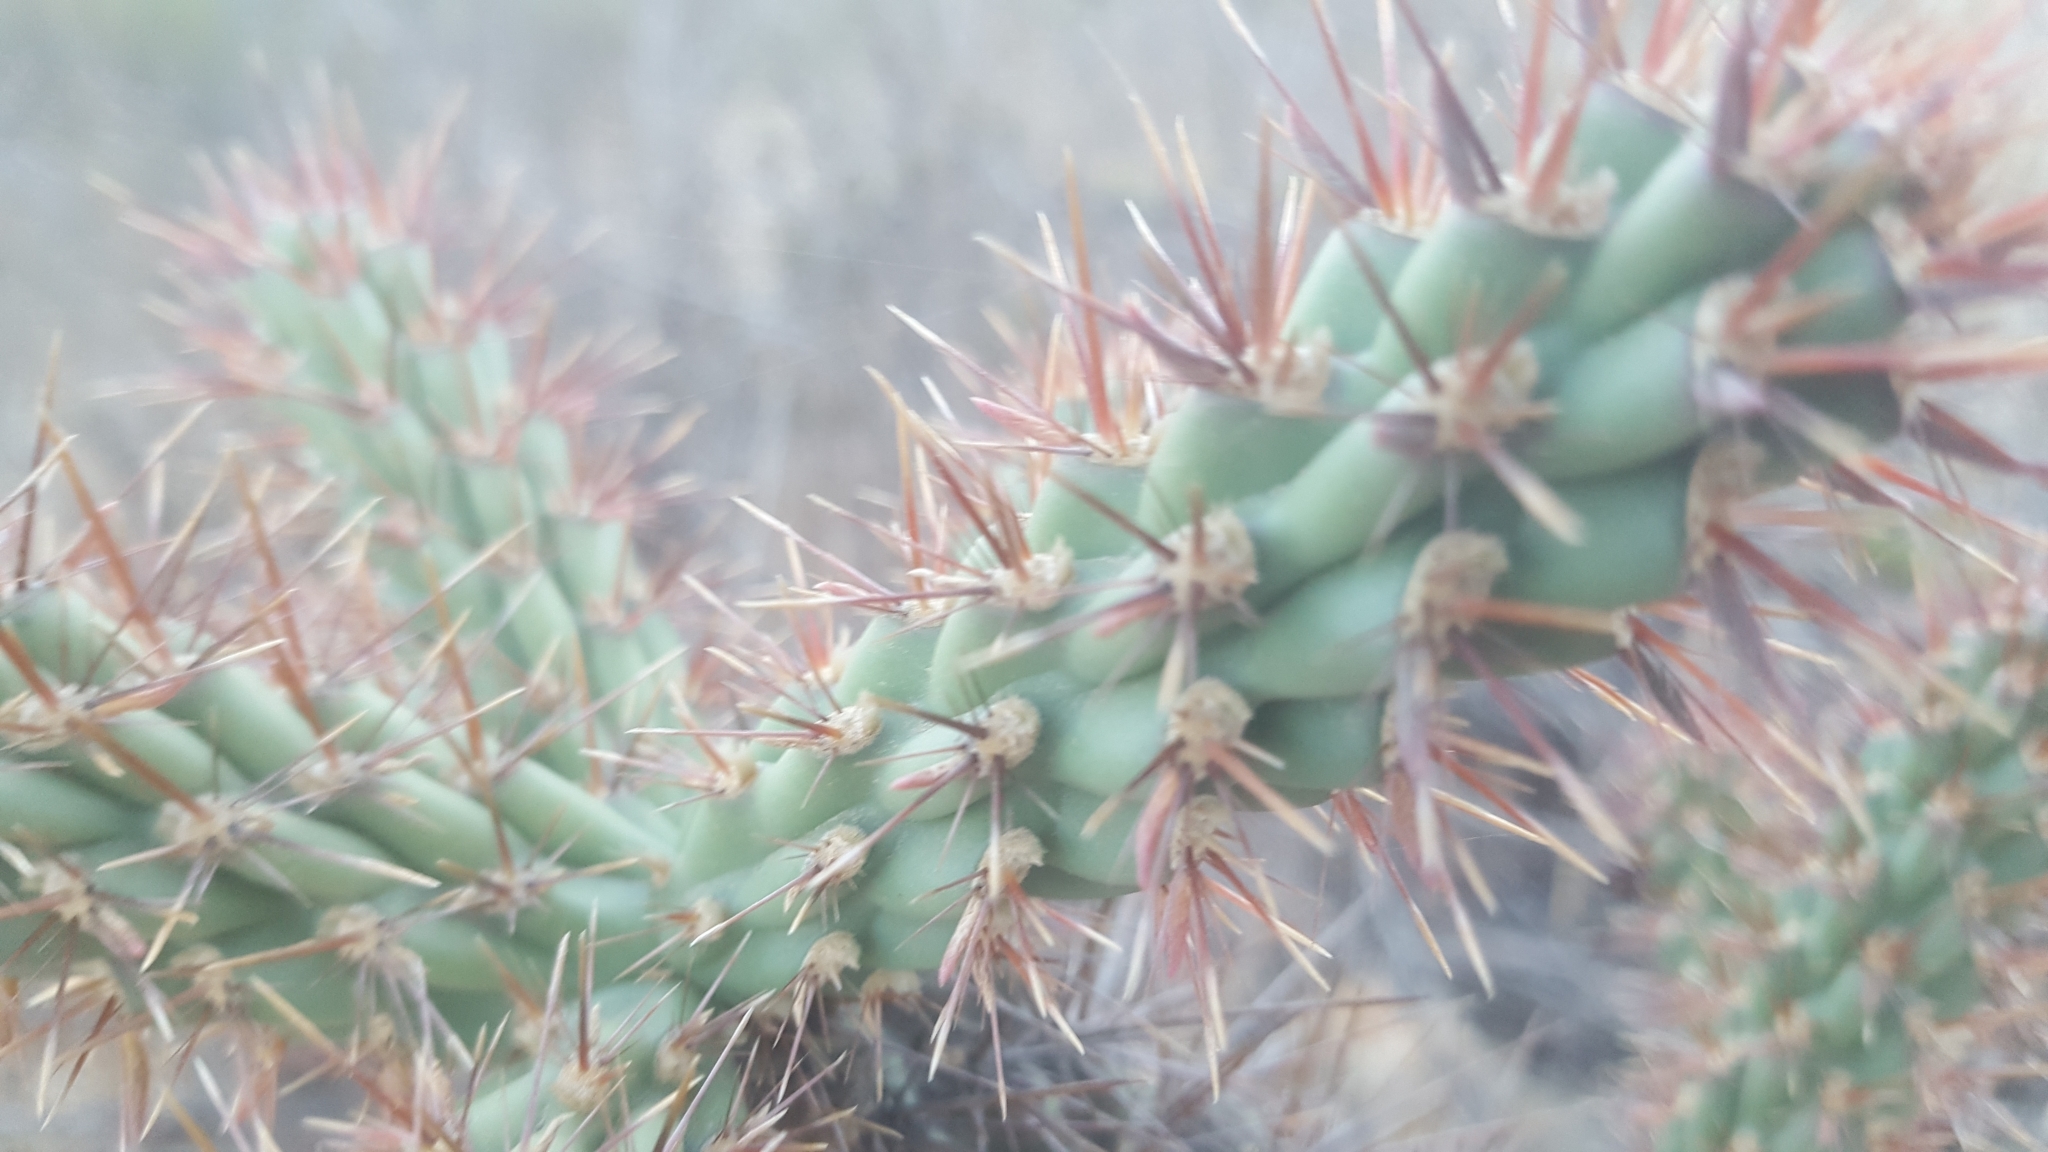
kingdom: Plantae
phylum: Tracheophyta
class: Magnoliopsida
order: Caryophyllales
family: Cactaceae
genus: Cylindropuntia
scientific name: Cylindropuntia prolifera
